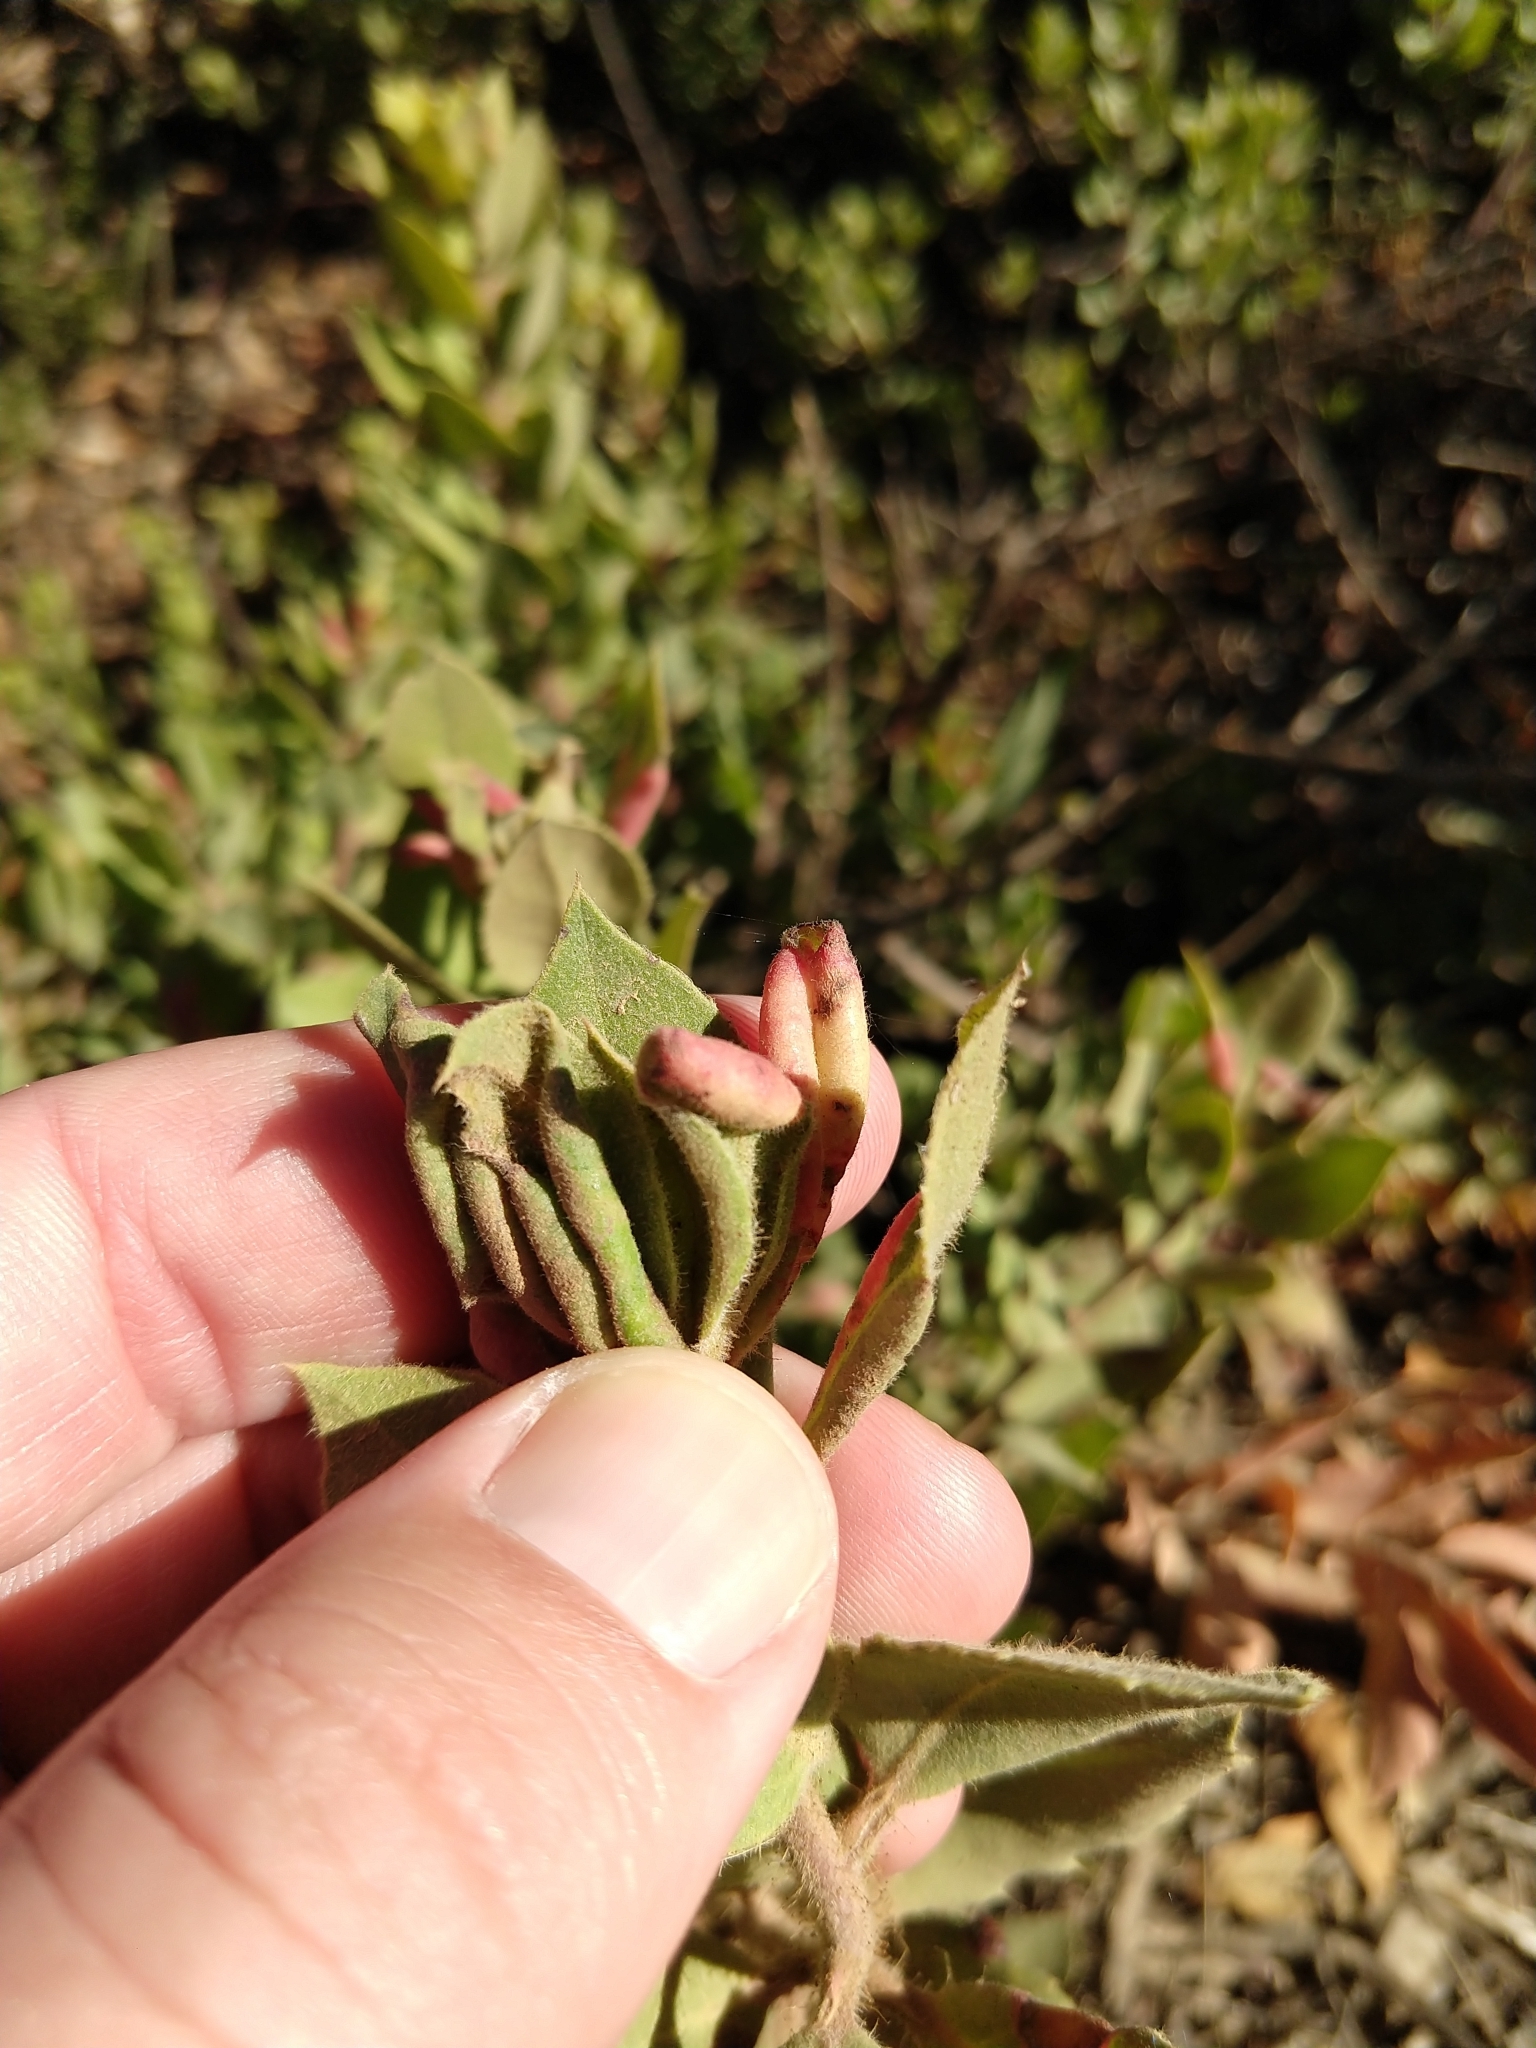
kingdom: Animalia
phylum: Arthropoda
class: Insecta
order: Hemiptera
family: Aphididae
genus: Tamalia
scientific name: Tamalia coweni
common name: Manzanita leafgall aphid
